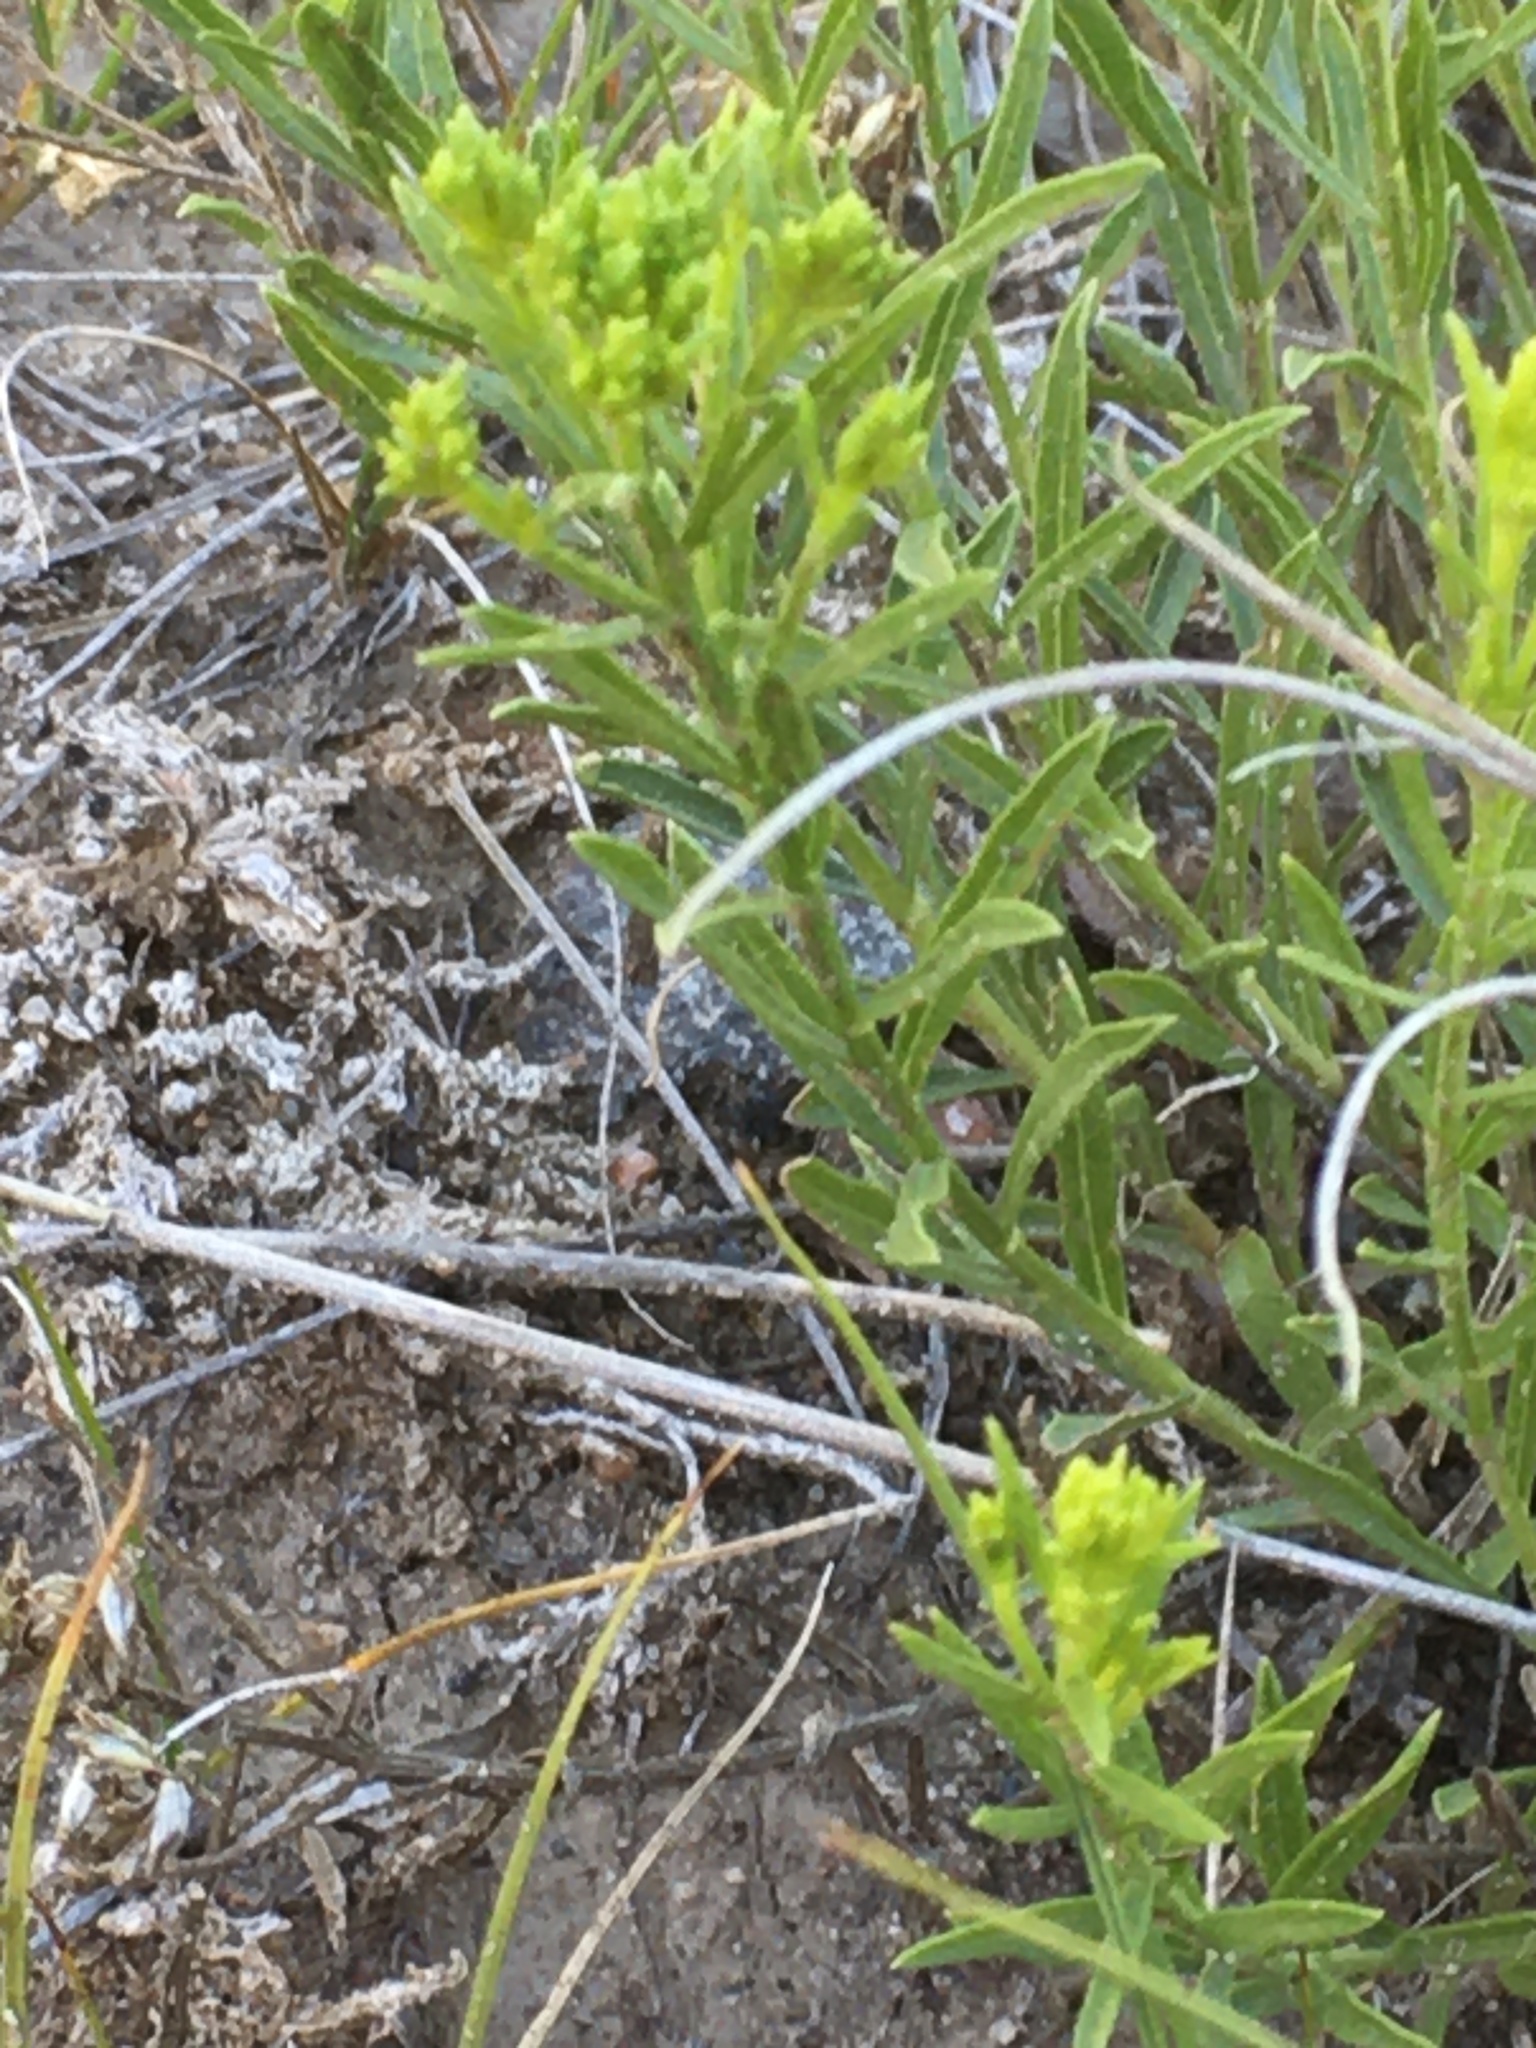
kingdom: Plantae
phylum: Tracheophyta
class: Magnoliopsida
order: Asterales
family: Asteraceae
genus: Gutierrezia
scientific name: Gutierrezia sarothrae
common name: Broom snakeweed
